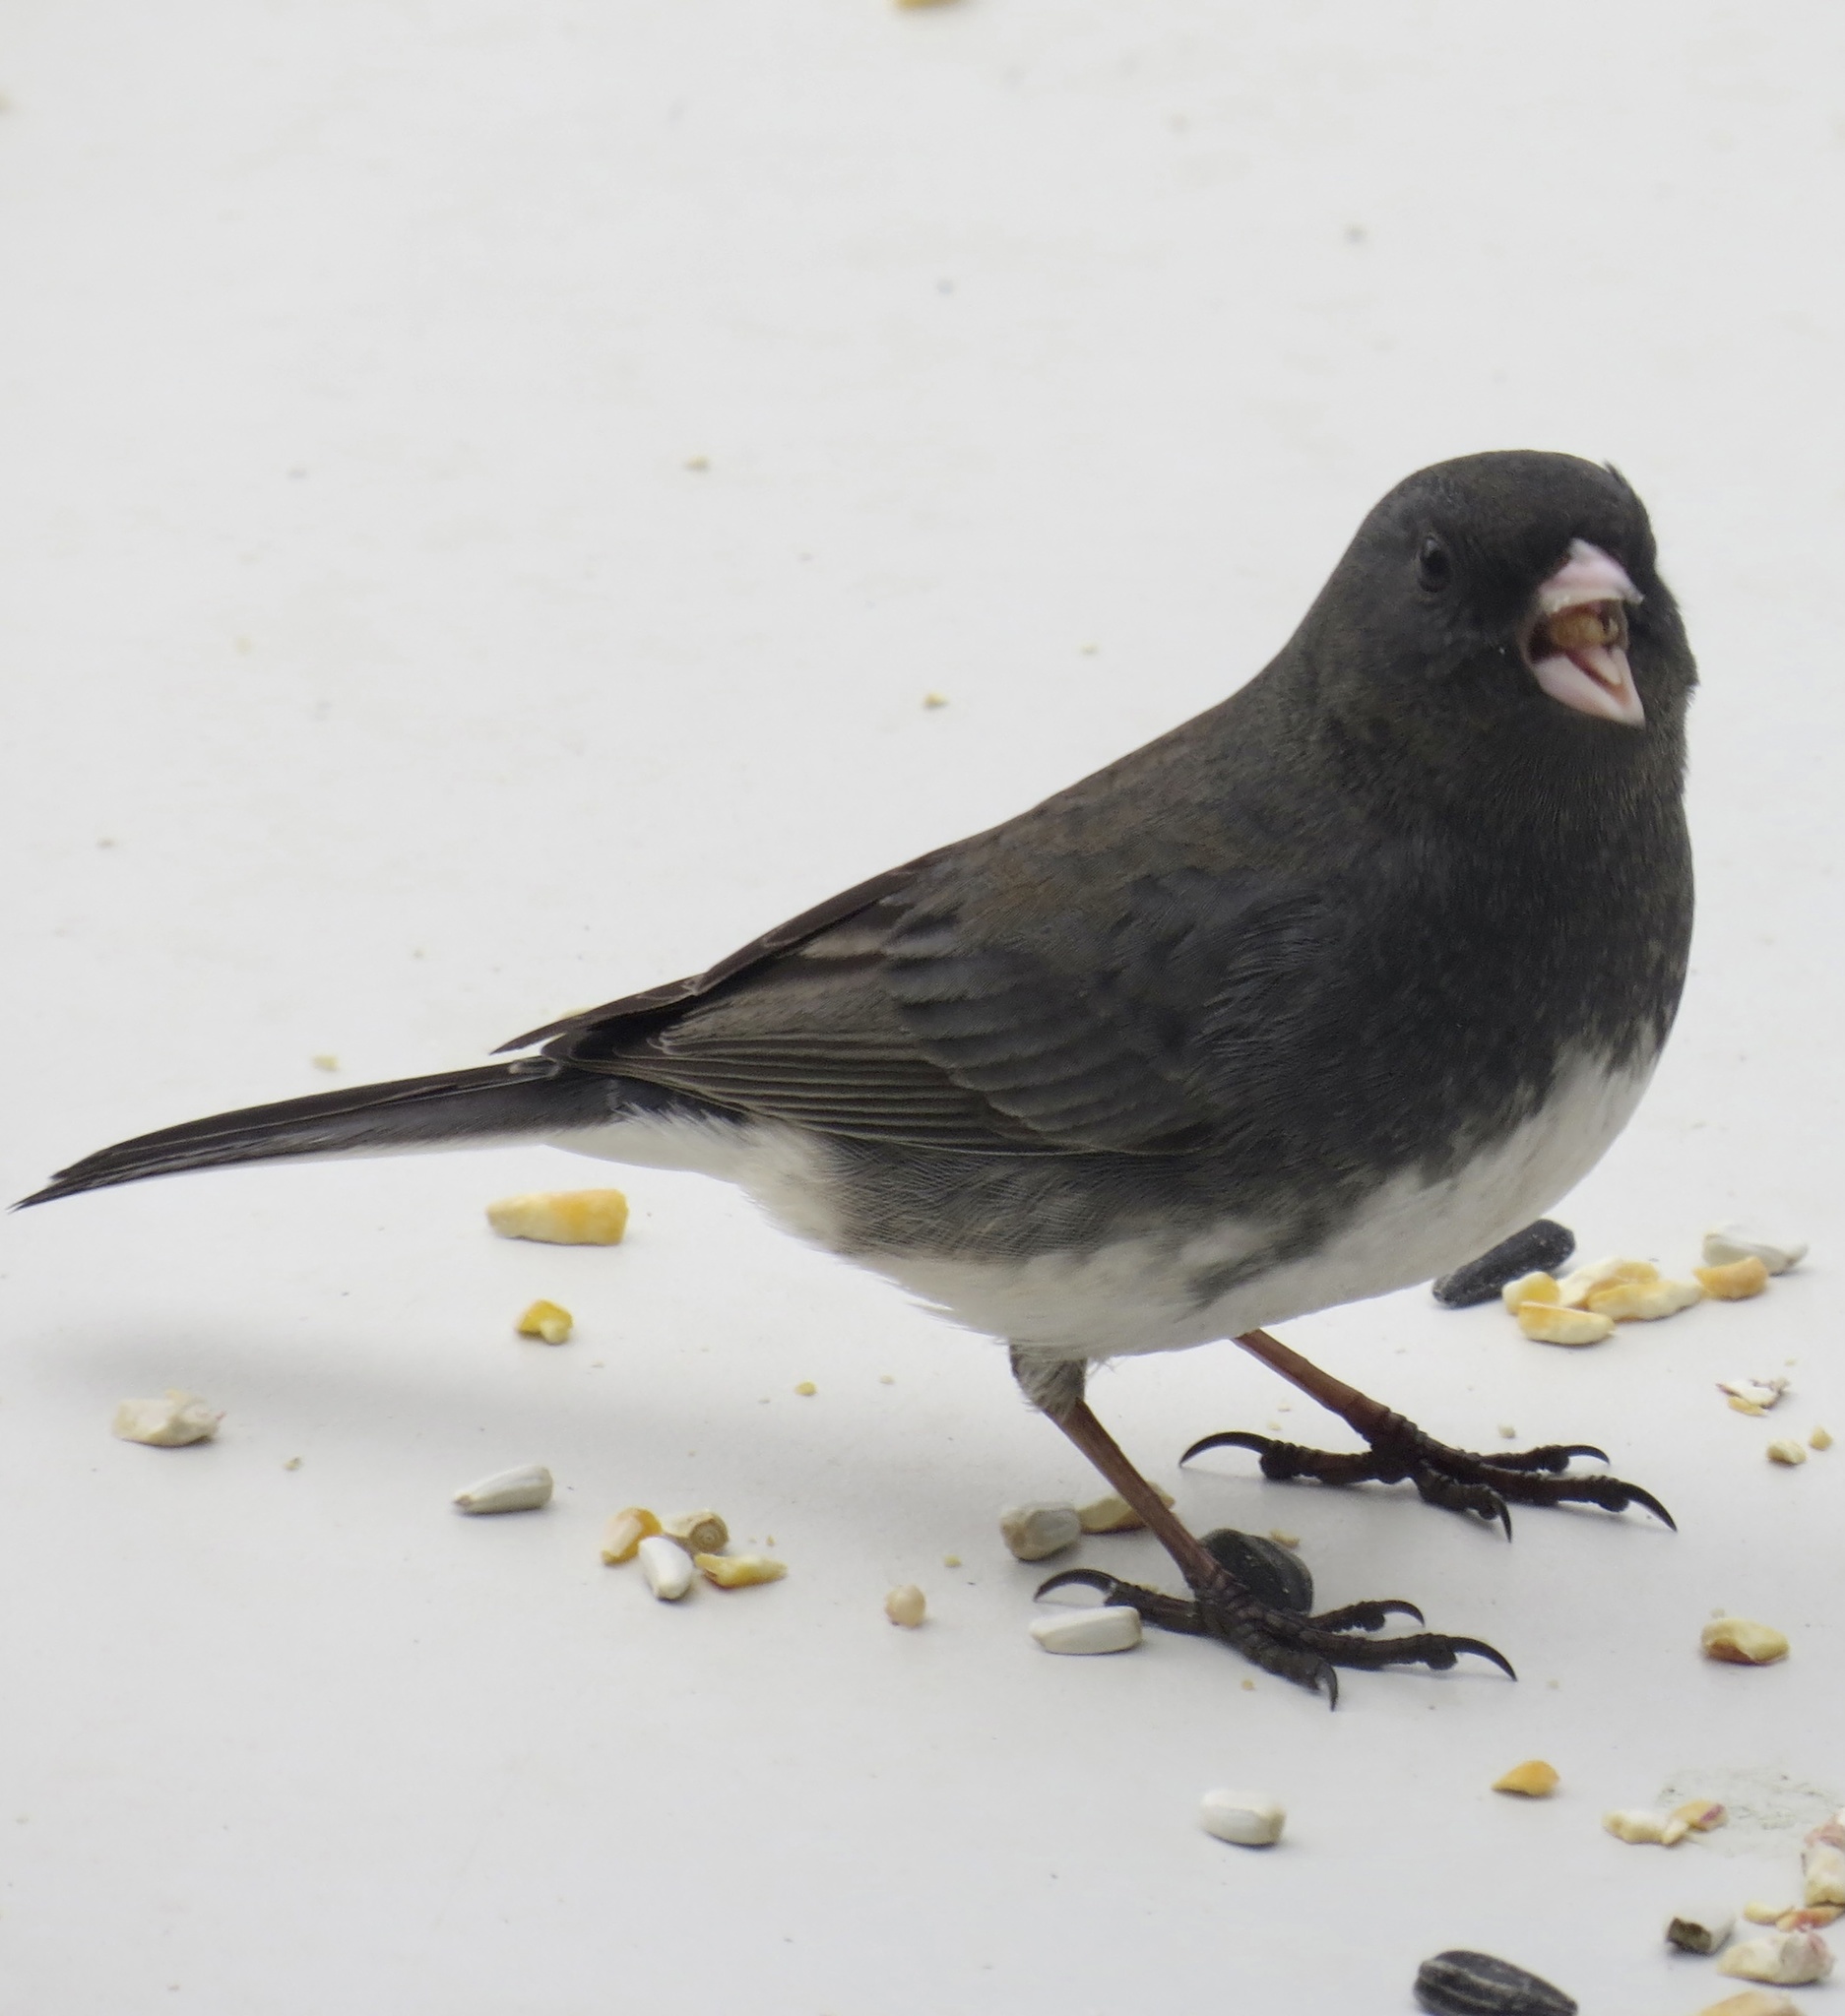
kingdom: Animalia
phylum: Chordata
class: Aves
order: Passeriformes
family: Passerellidae
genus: Junco
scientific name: Junco hyemalis
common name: Dark-eyed junco
